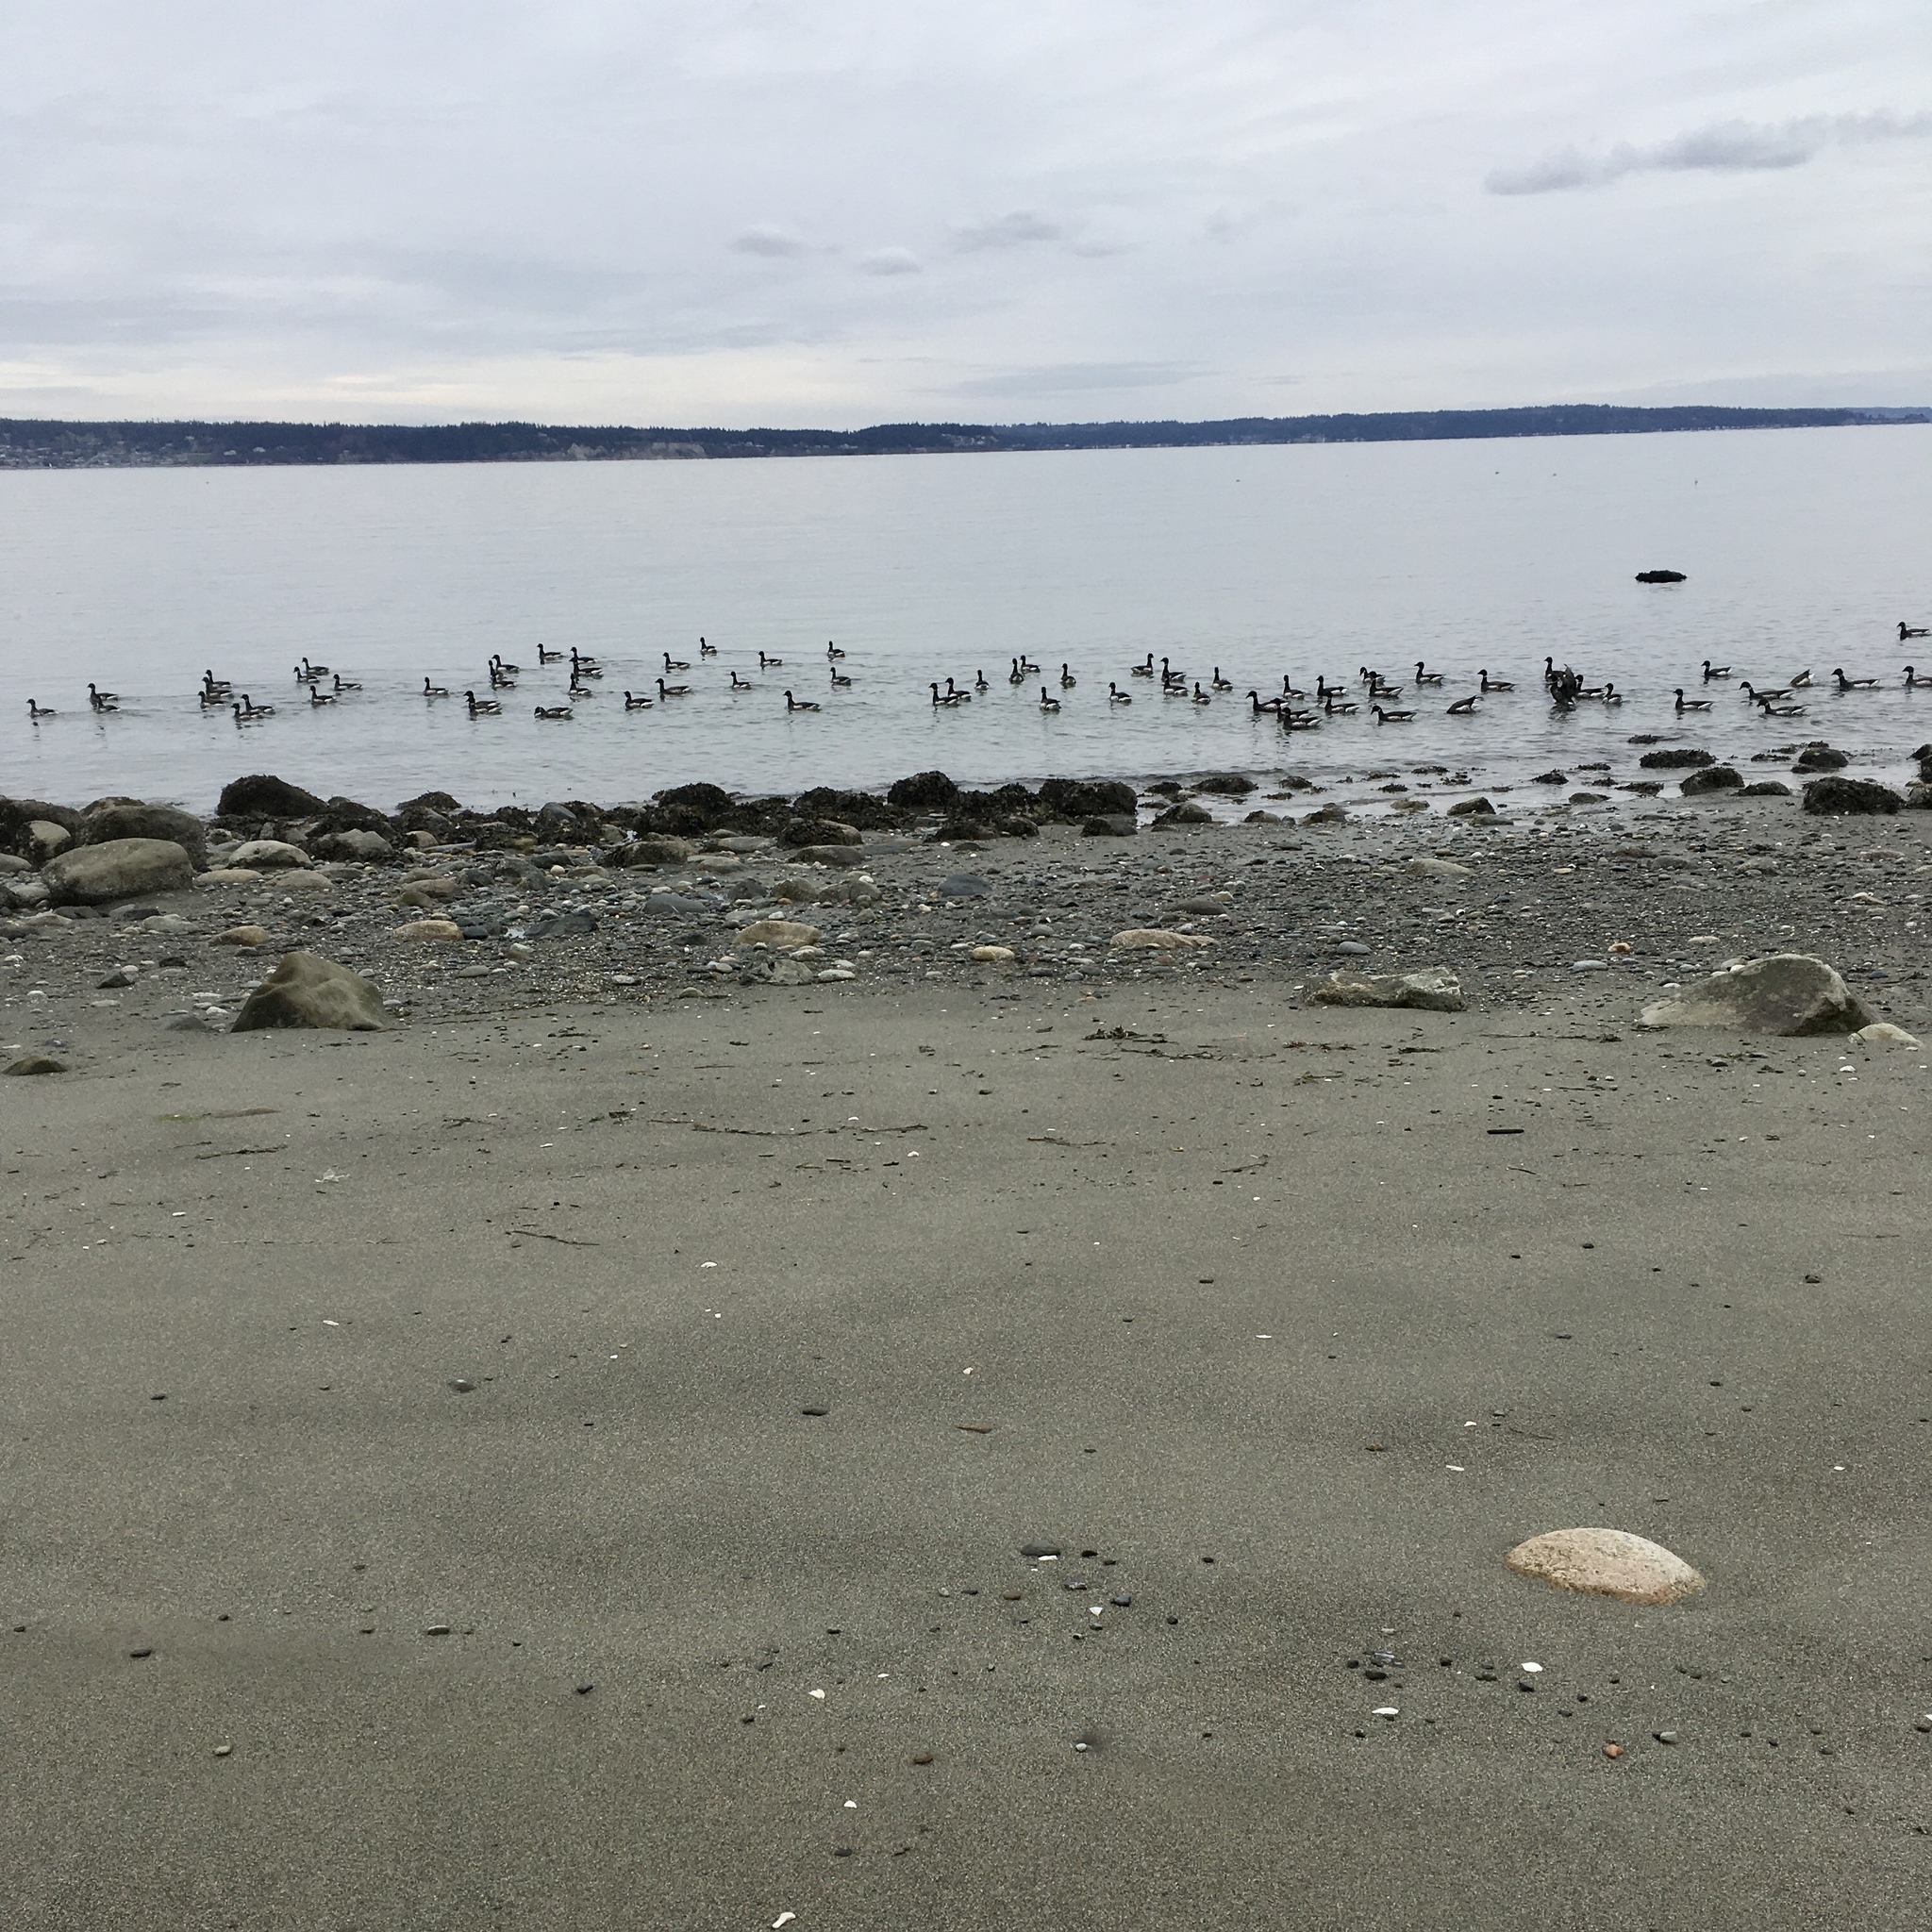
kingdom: Animalia
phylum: Chordata
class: Aves
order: Anseriformes
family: Anatidae
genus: Branta
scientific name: Branta bernicla
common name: Brant goose
